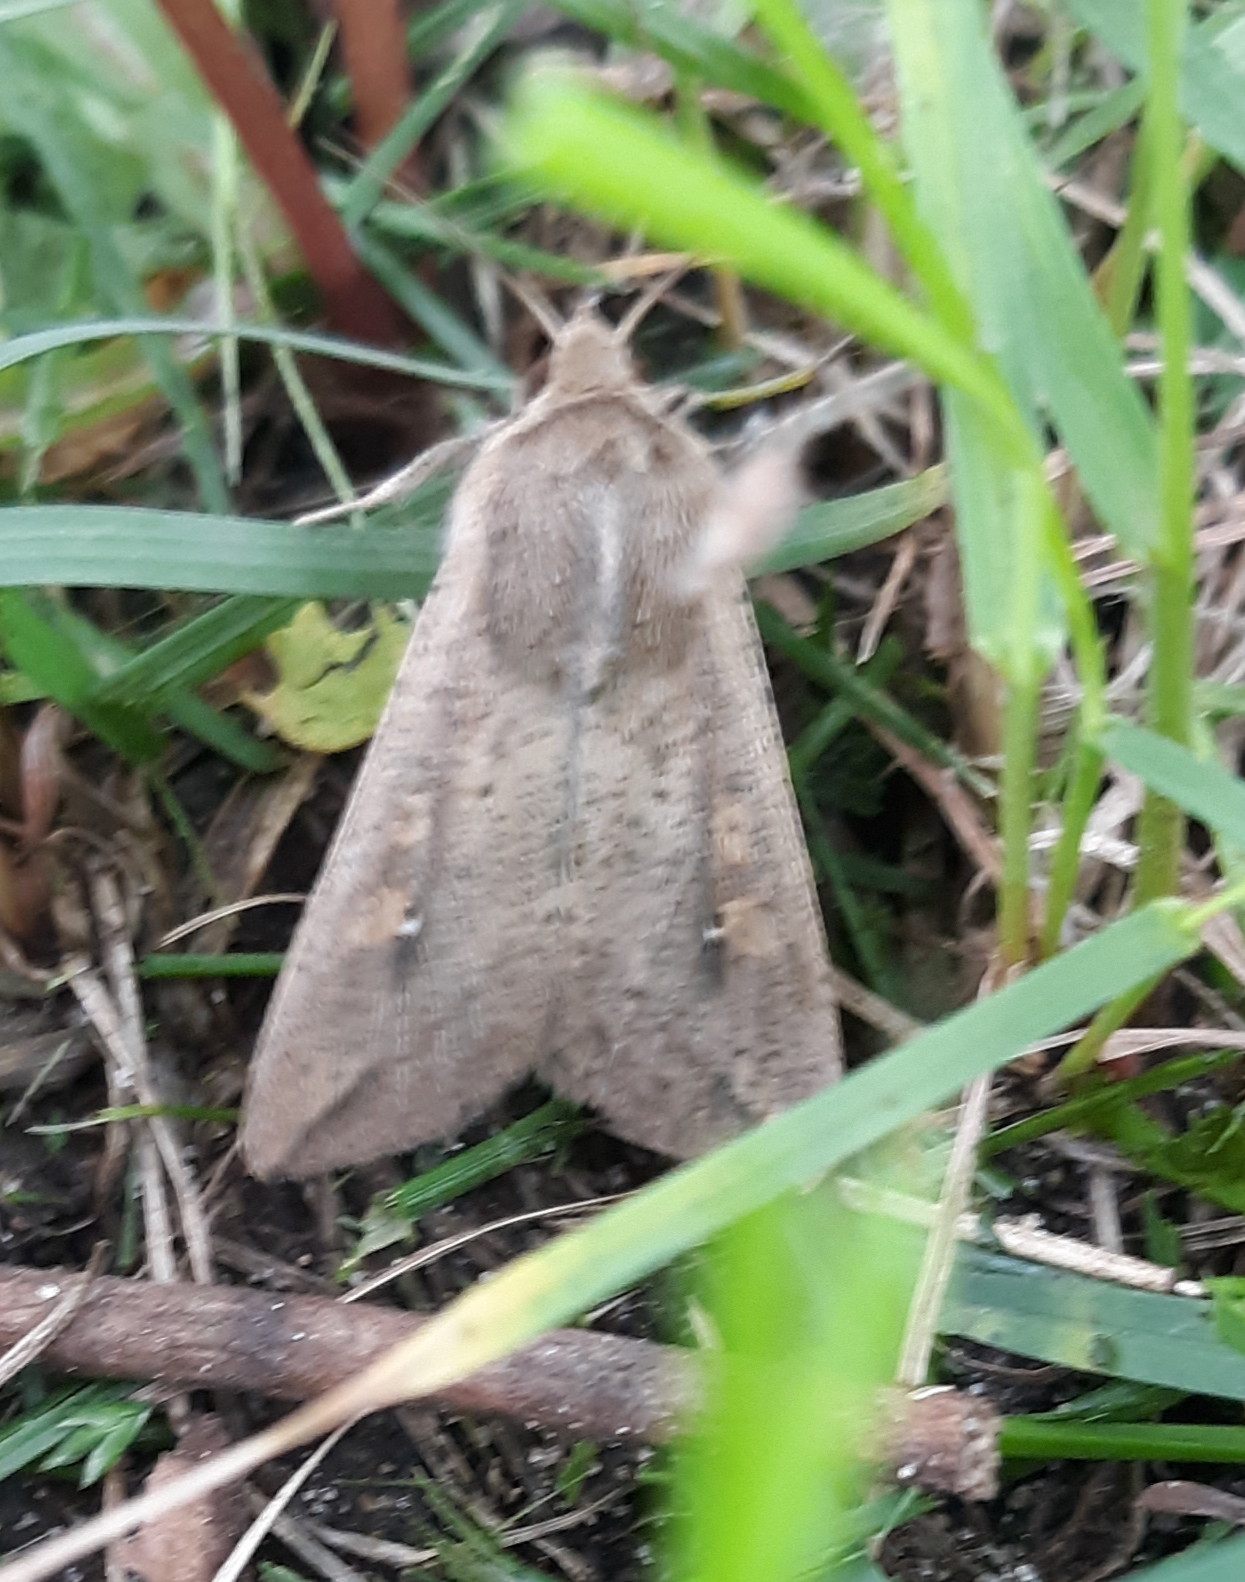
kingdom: Animalia
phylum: Arthropoda
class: Insecta
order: Lepidoptera
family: Noctuidae
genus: Mythimna
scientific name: Mythimna unipuncta
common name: White-speck
